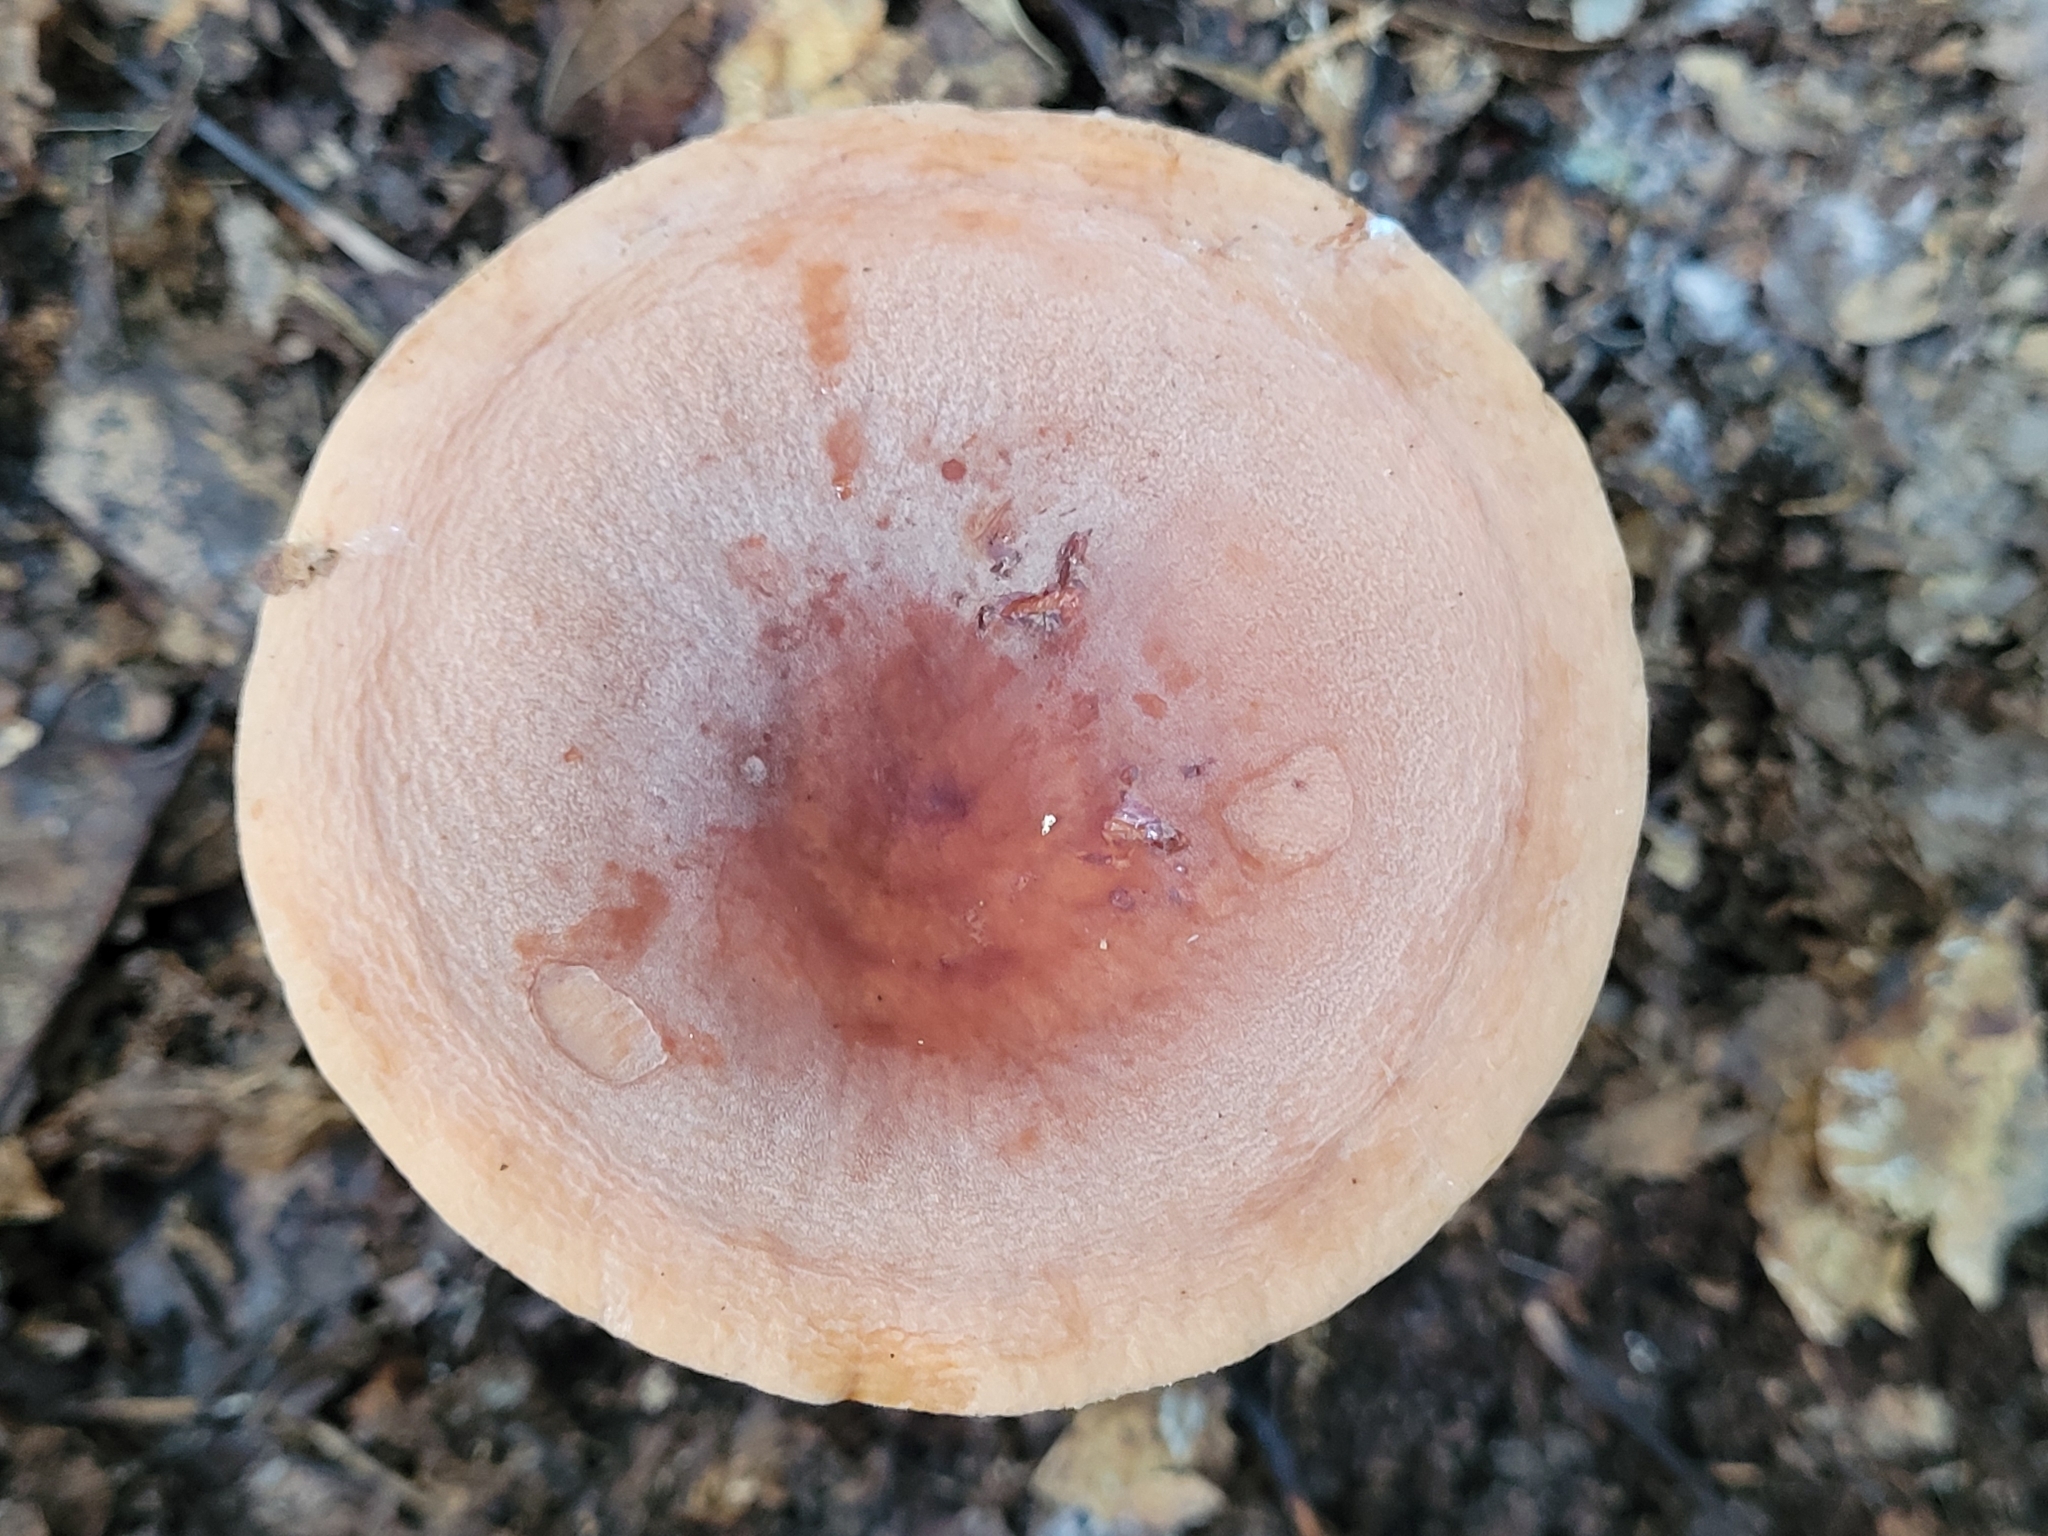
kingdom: Fungi
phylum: Basidiomycota
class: Agaricomycetes
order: Russulales
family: Russulaceae
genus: Lactifluus
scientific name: Lactifluus volemus
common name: Fishy milkcap
